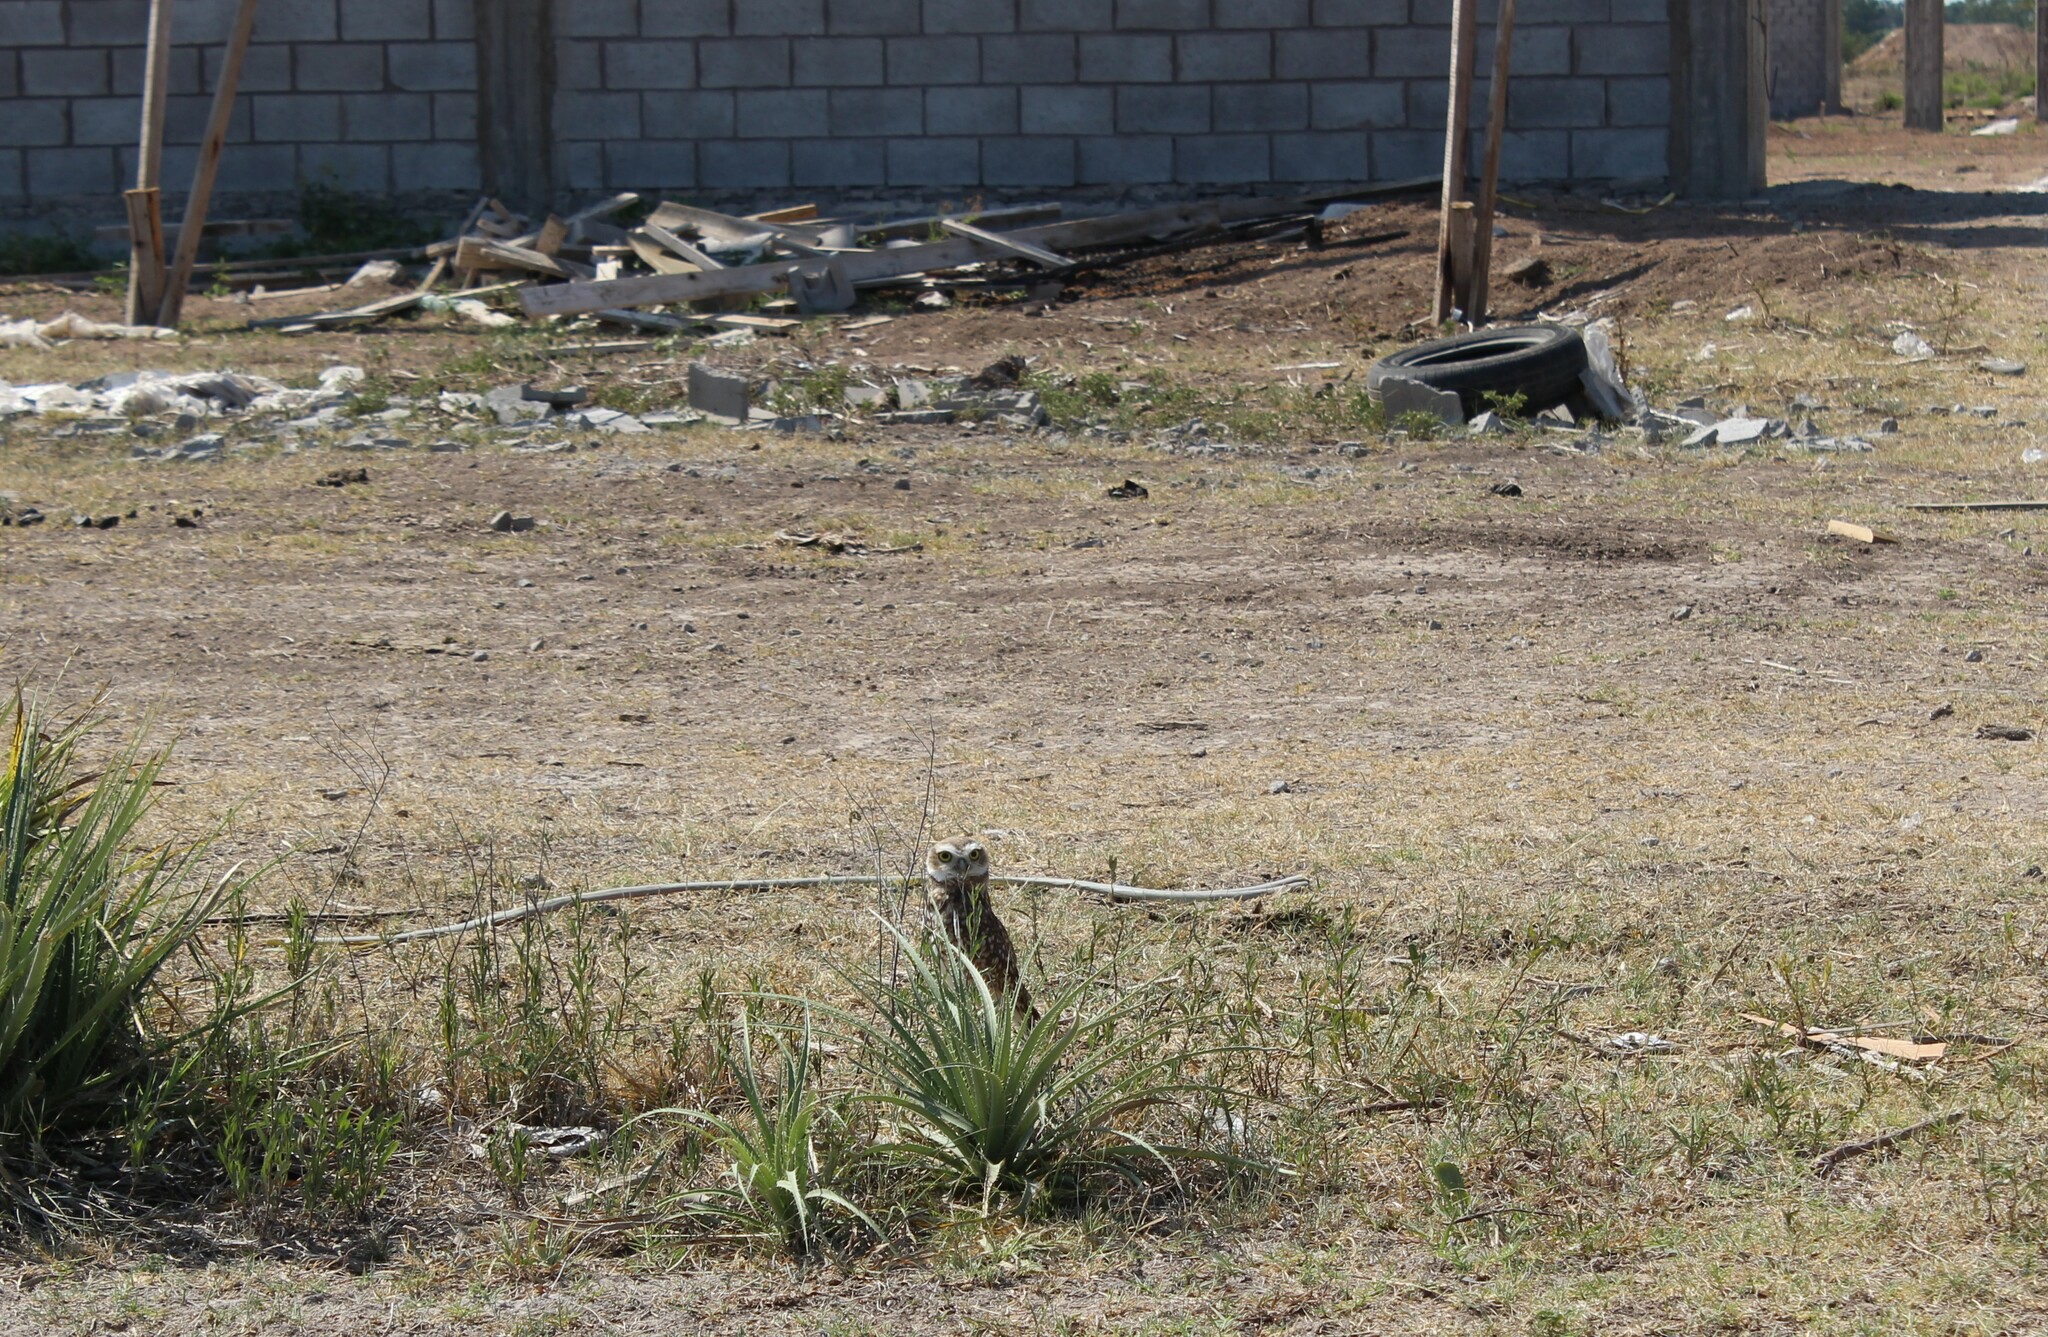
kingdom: Animalia
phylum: Chordata
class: Aves
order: Strigiformes
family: Strigidae
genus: Athene
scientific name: Athene cunicularia
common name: Burrowing owl
